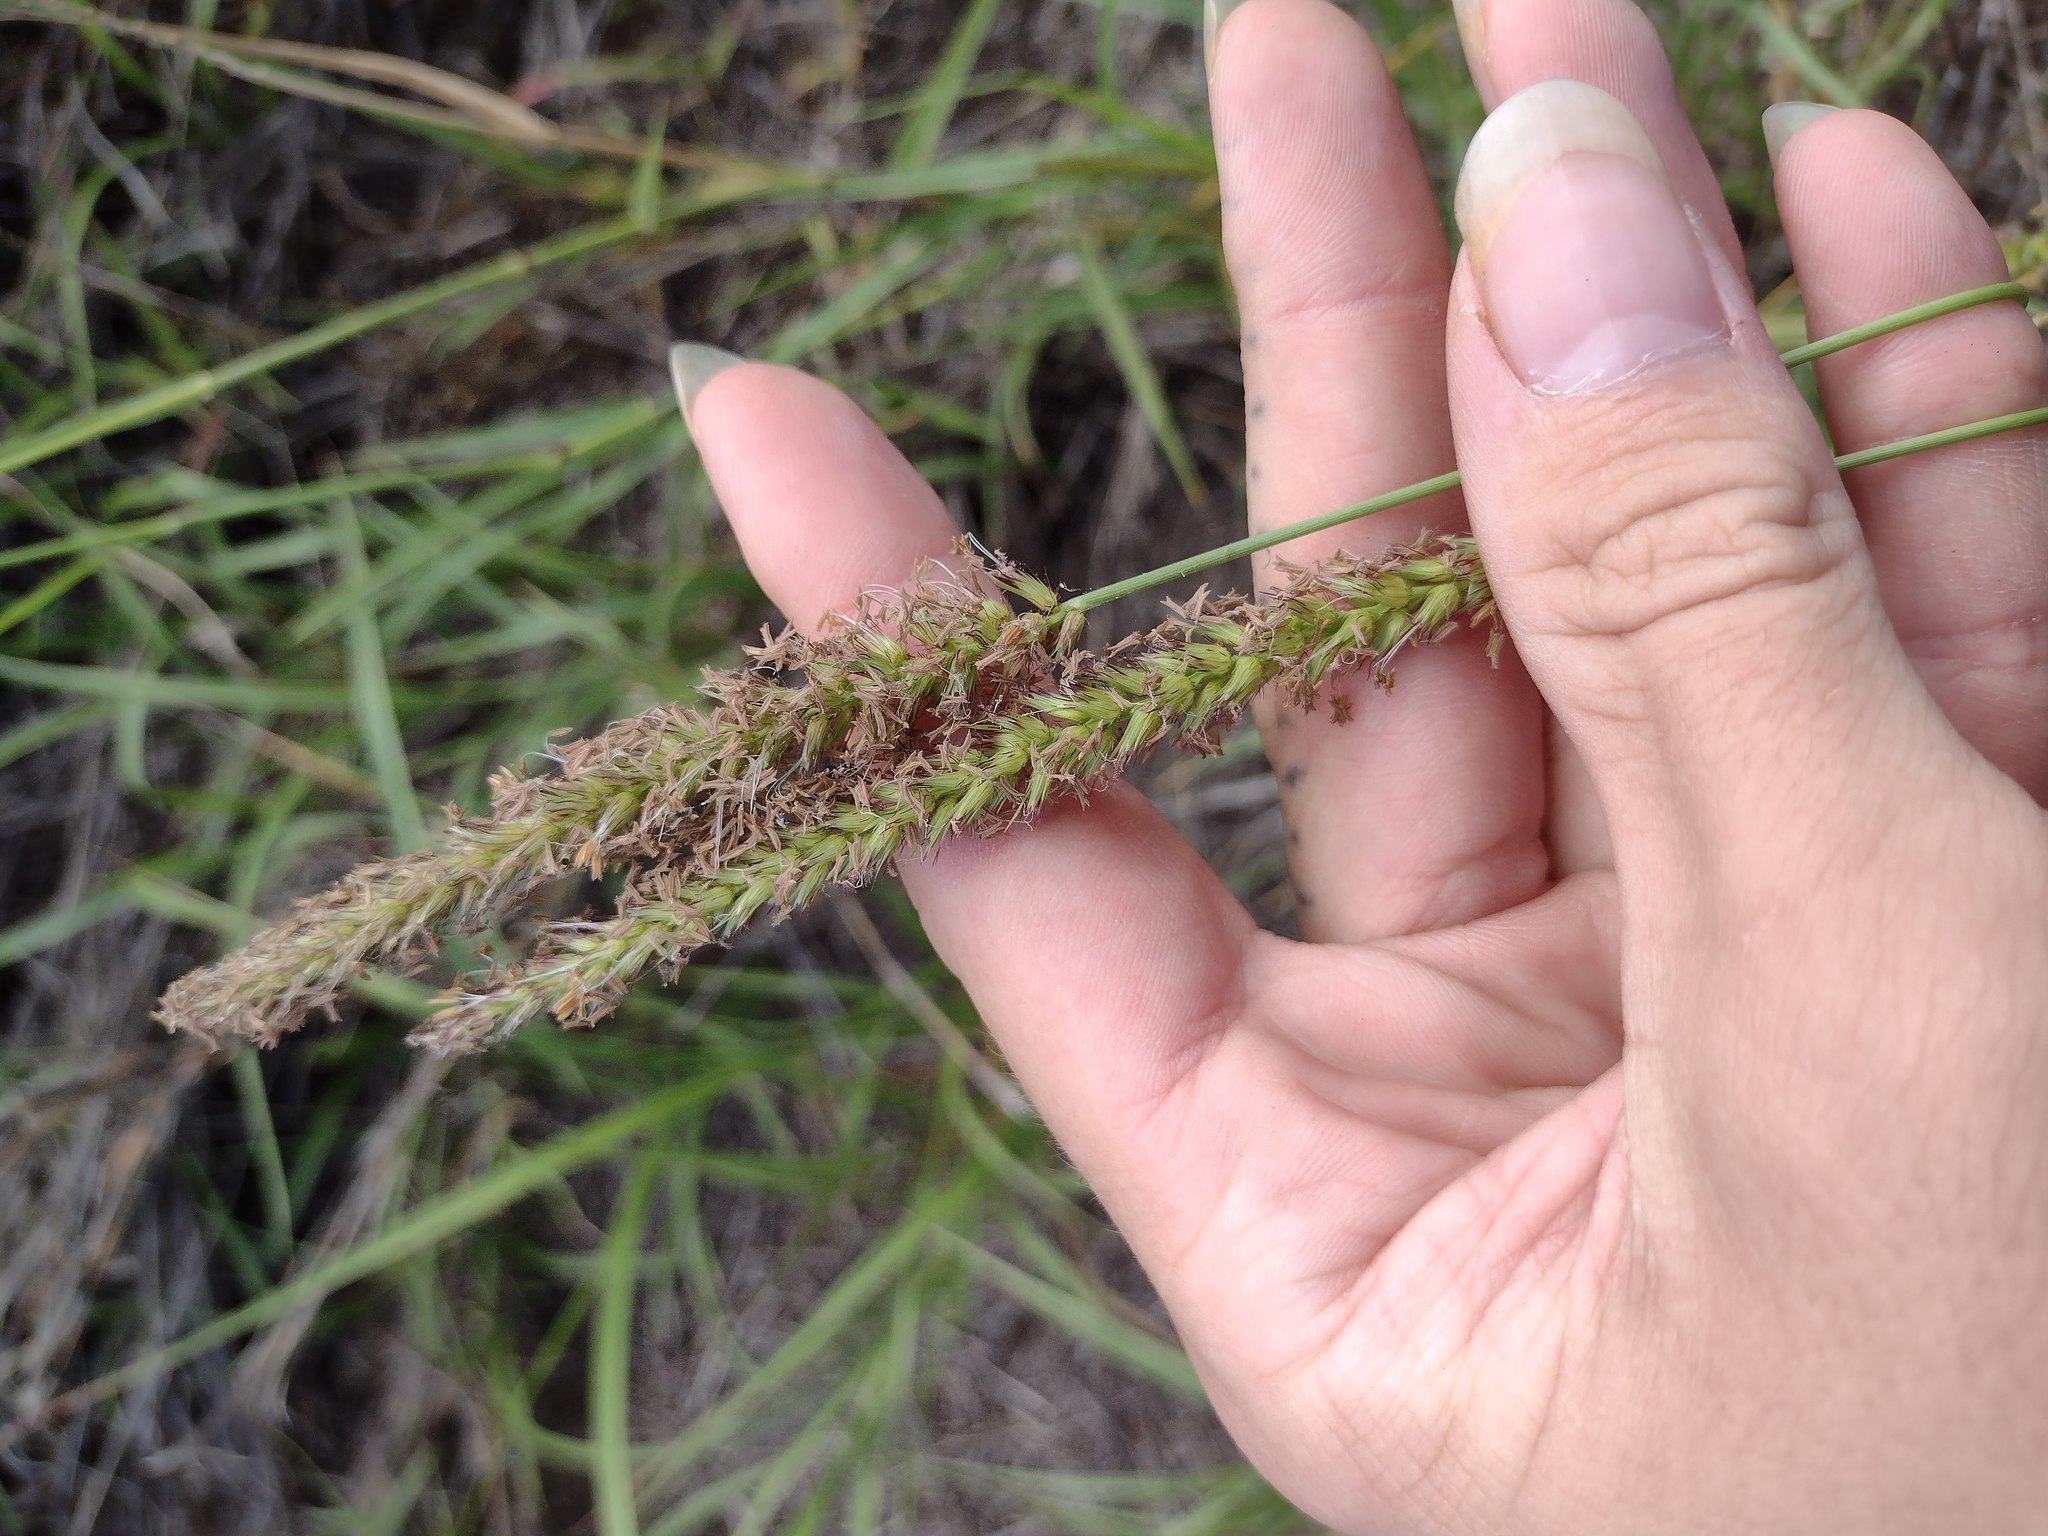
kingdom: Plantae
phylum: Tracheophyta
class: Liliopsida
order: Poales
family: Poaceae
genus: Cenchrus
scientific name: Cenchrus setigerus
